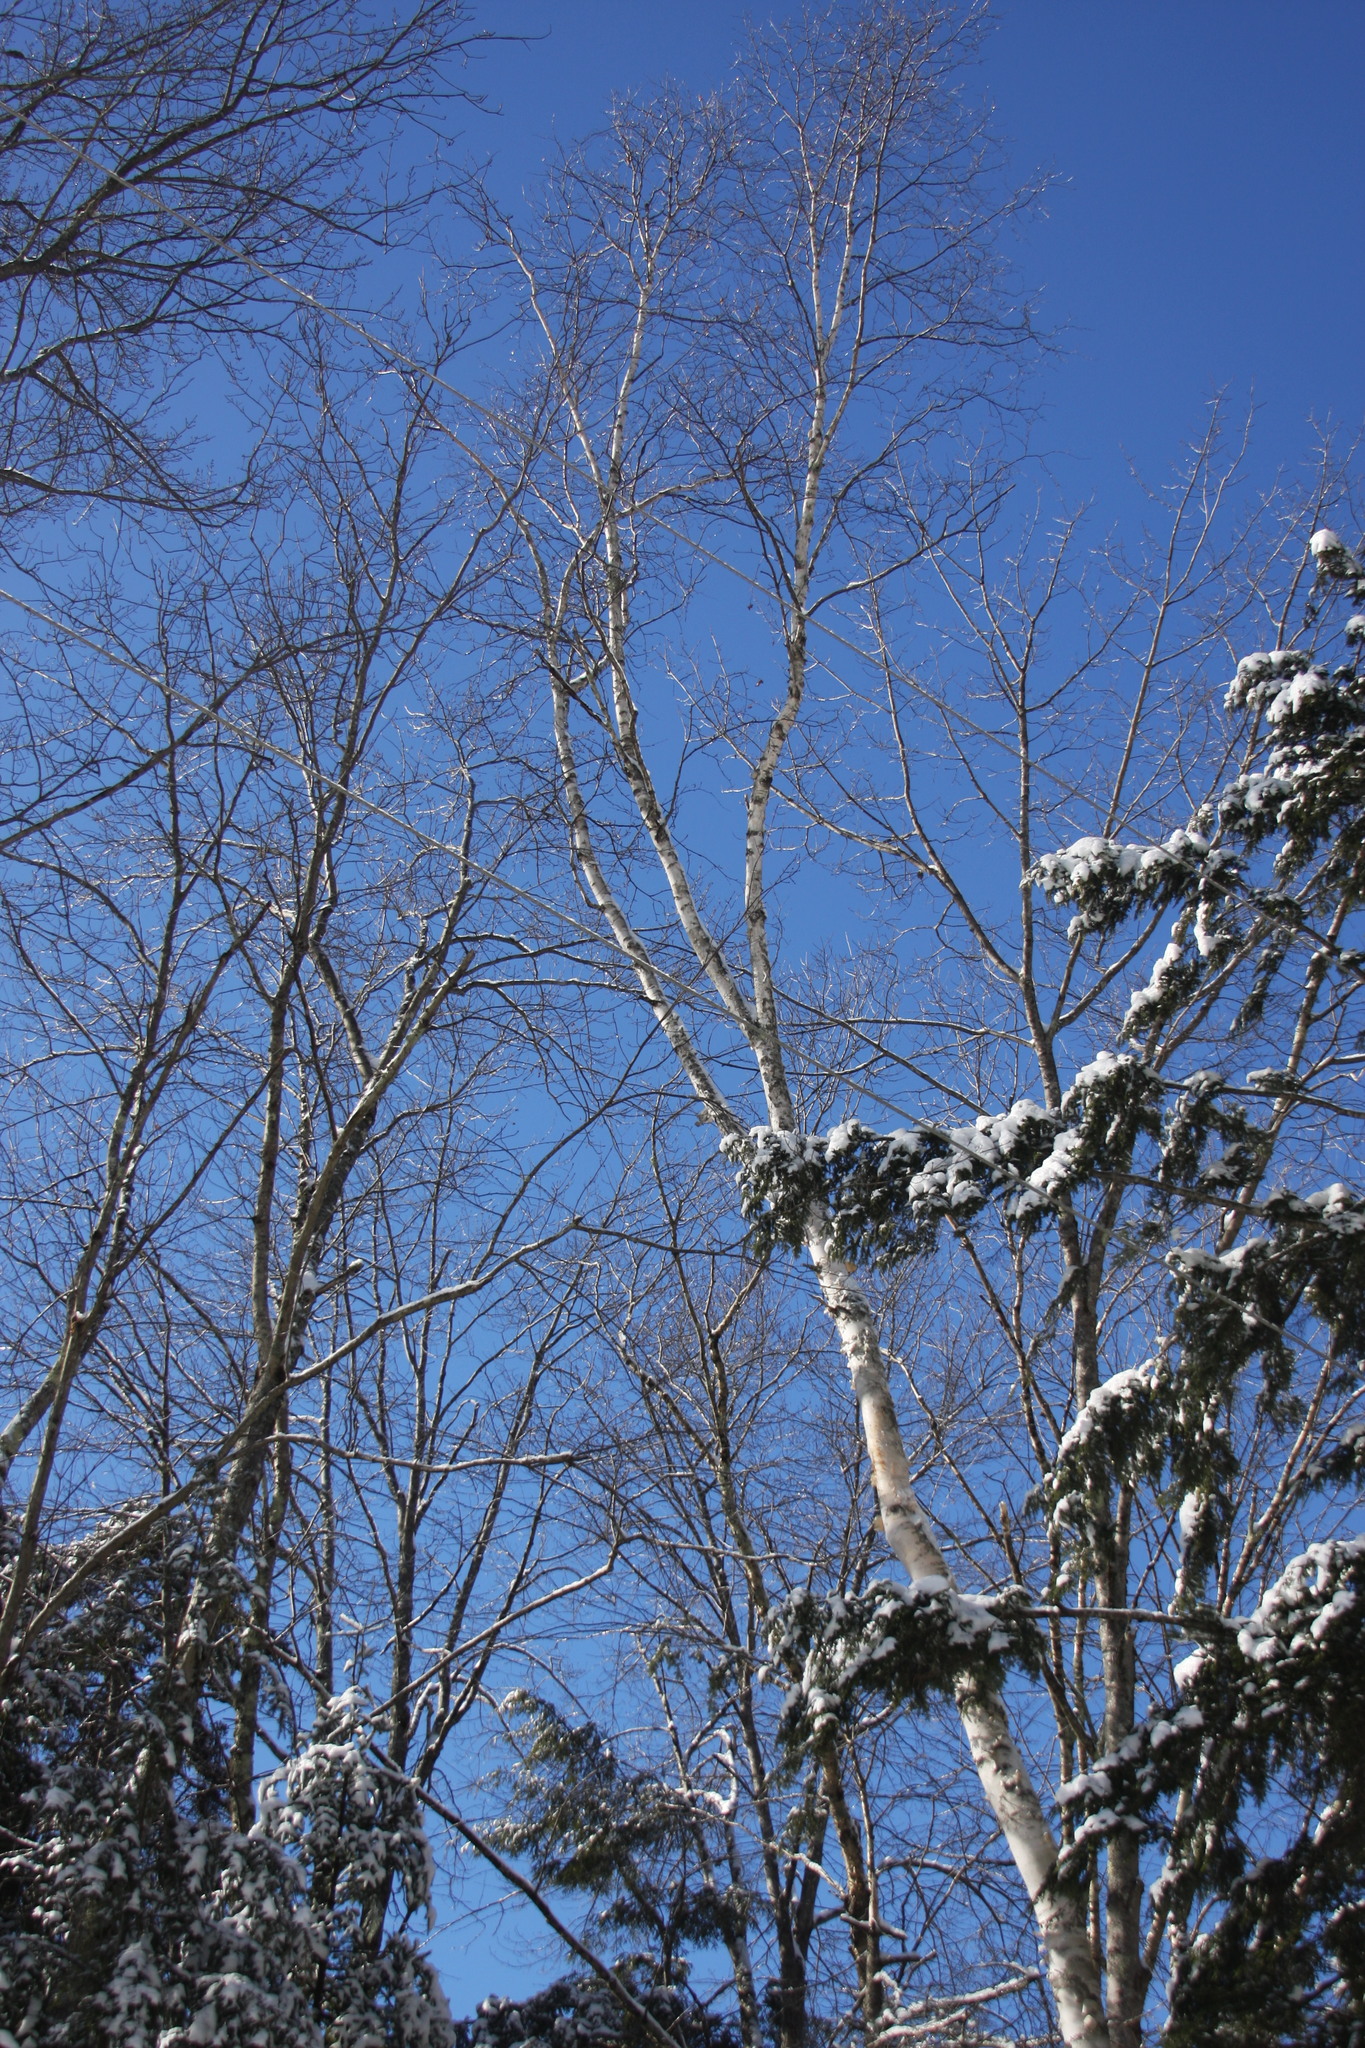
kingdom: Plantae
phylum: Tracheophyta
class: Magnoliopsida
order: Fagales
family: Betulaceae
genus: Betula
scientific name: Betula papyrifera
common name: Paper birch
